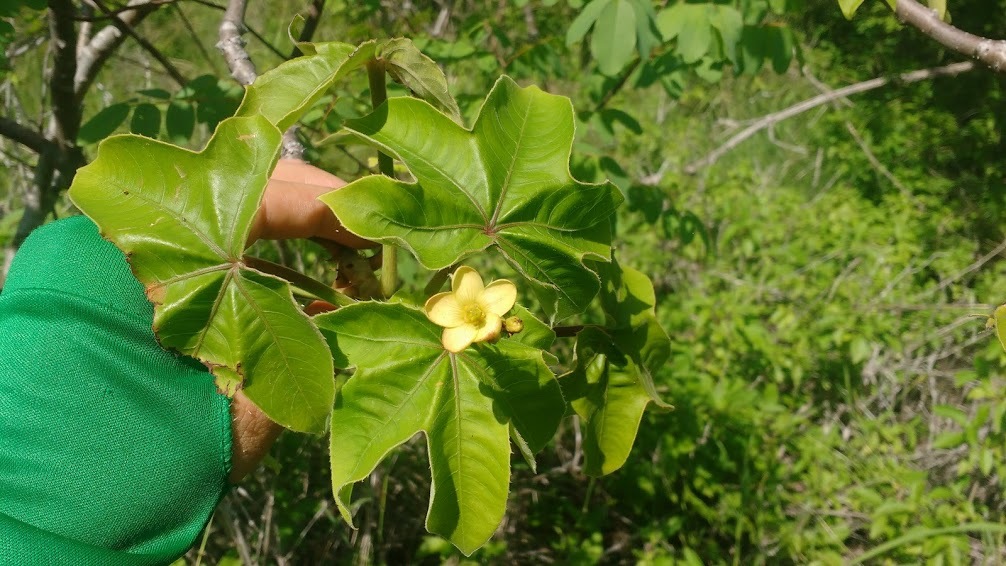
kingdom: Plantae
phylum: Tracheophyta
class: Magnoliopsida
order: Malpighiales
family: Euphorbiaceae
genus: Jatropha
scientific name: Jatropha mollissima
